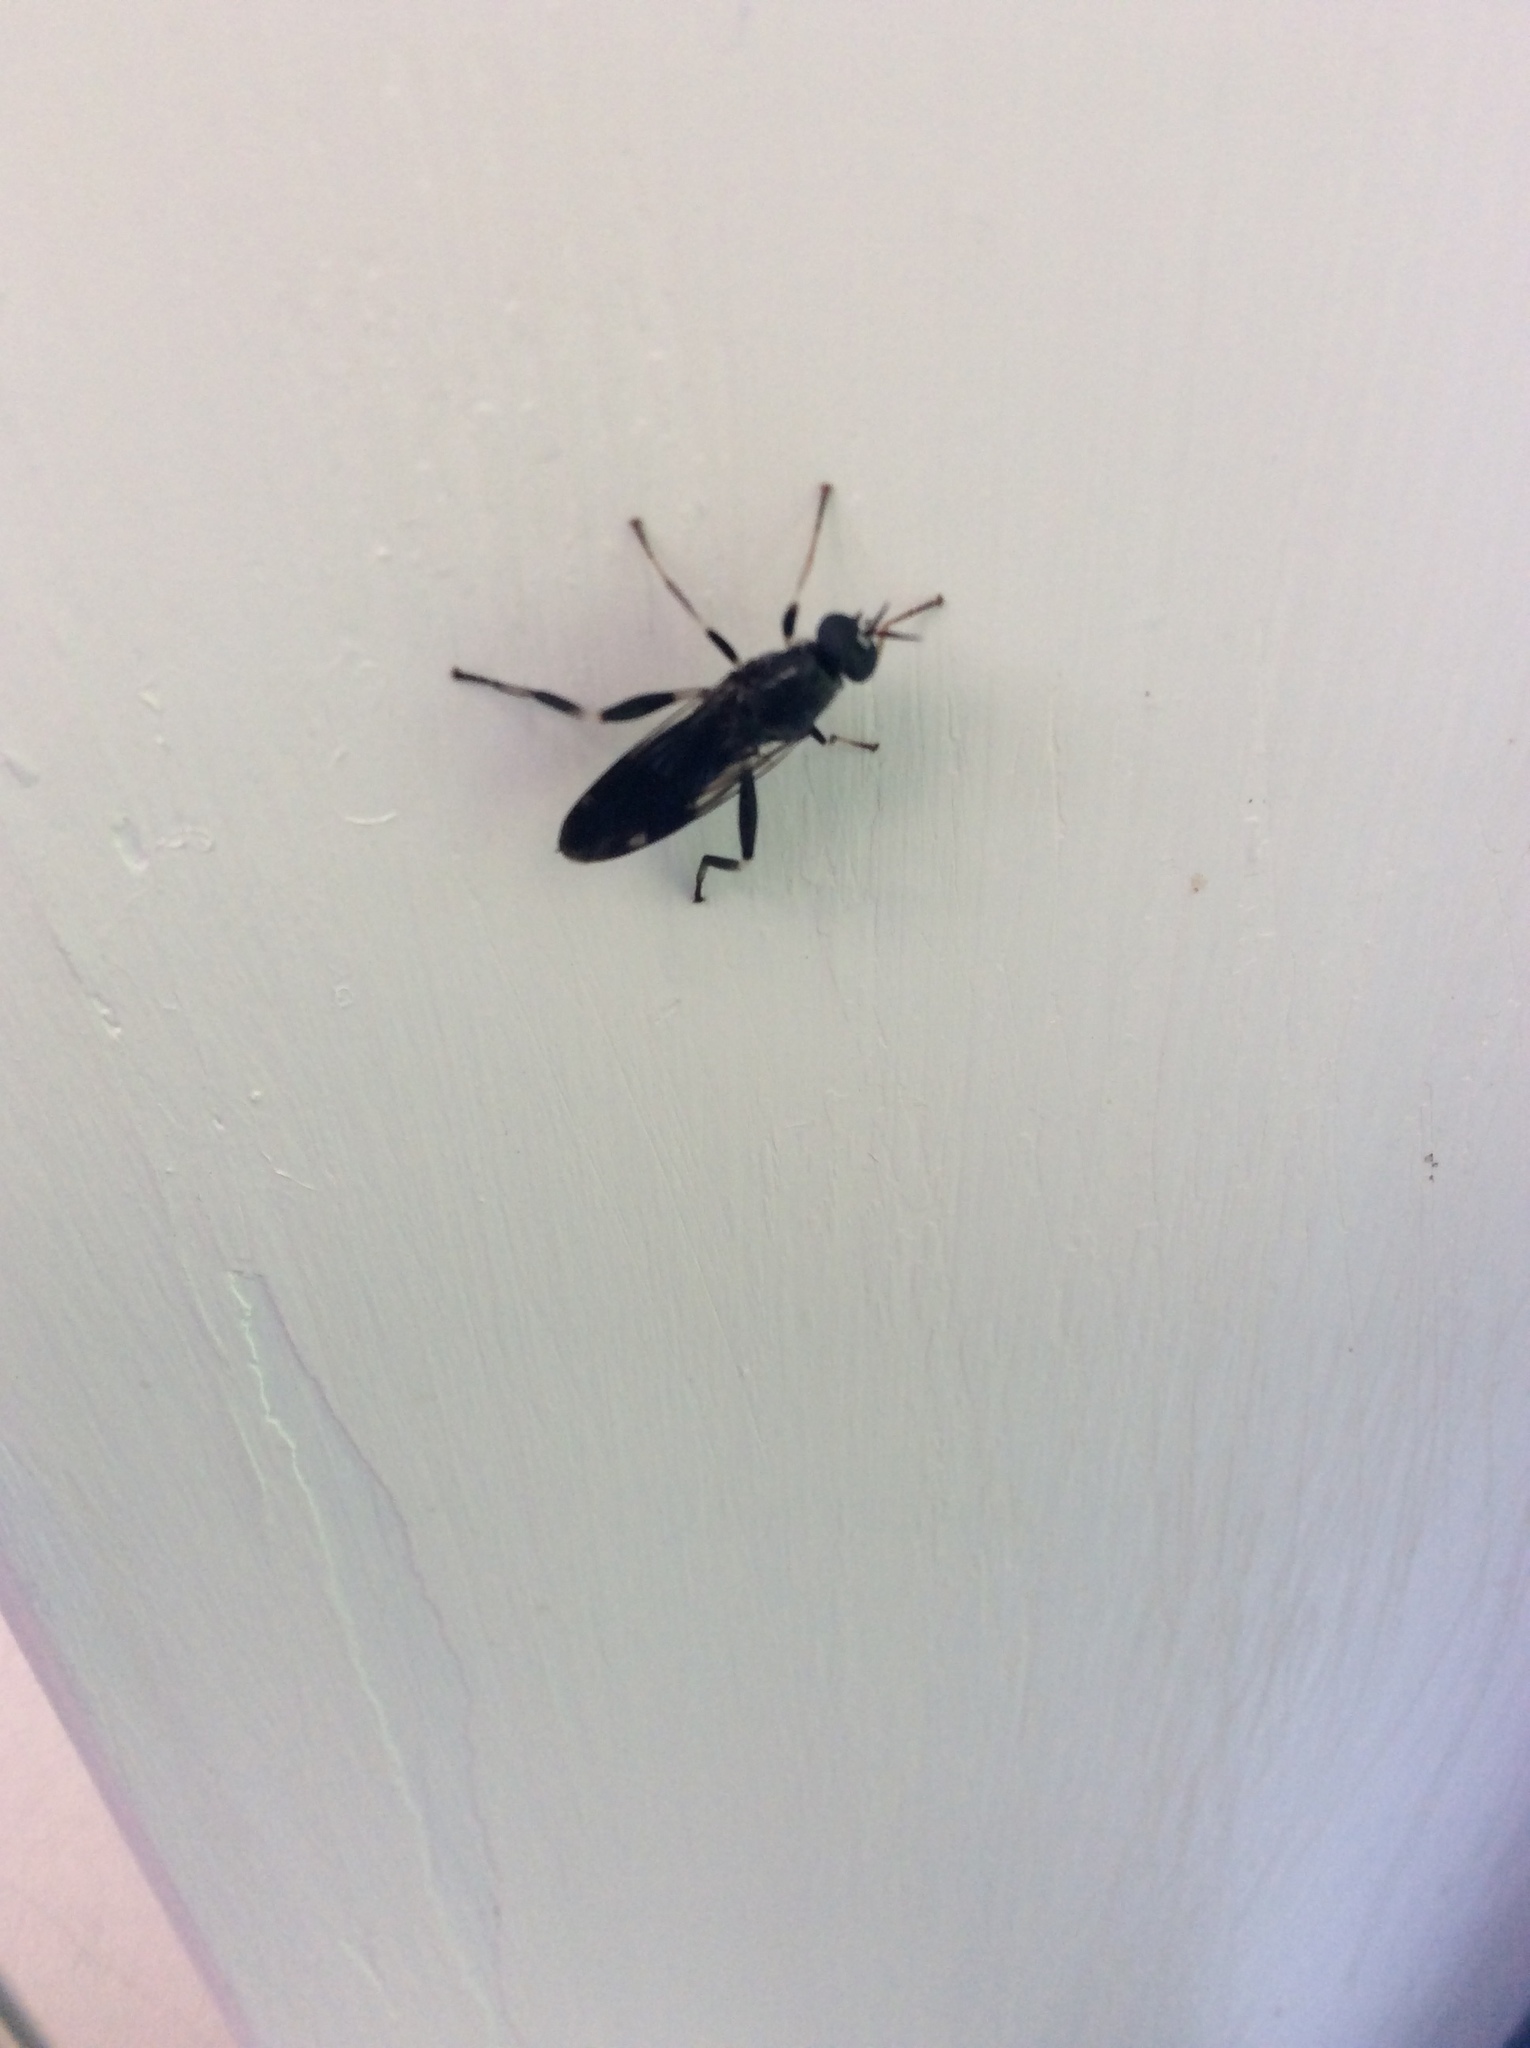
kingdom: Animalia
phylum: Arthropoda
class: Insecta
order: Diptera
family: Stratiomyidae
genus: Exaireta
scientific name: Exaireta spinigera
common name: Blue soldier fly
